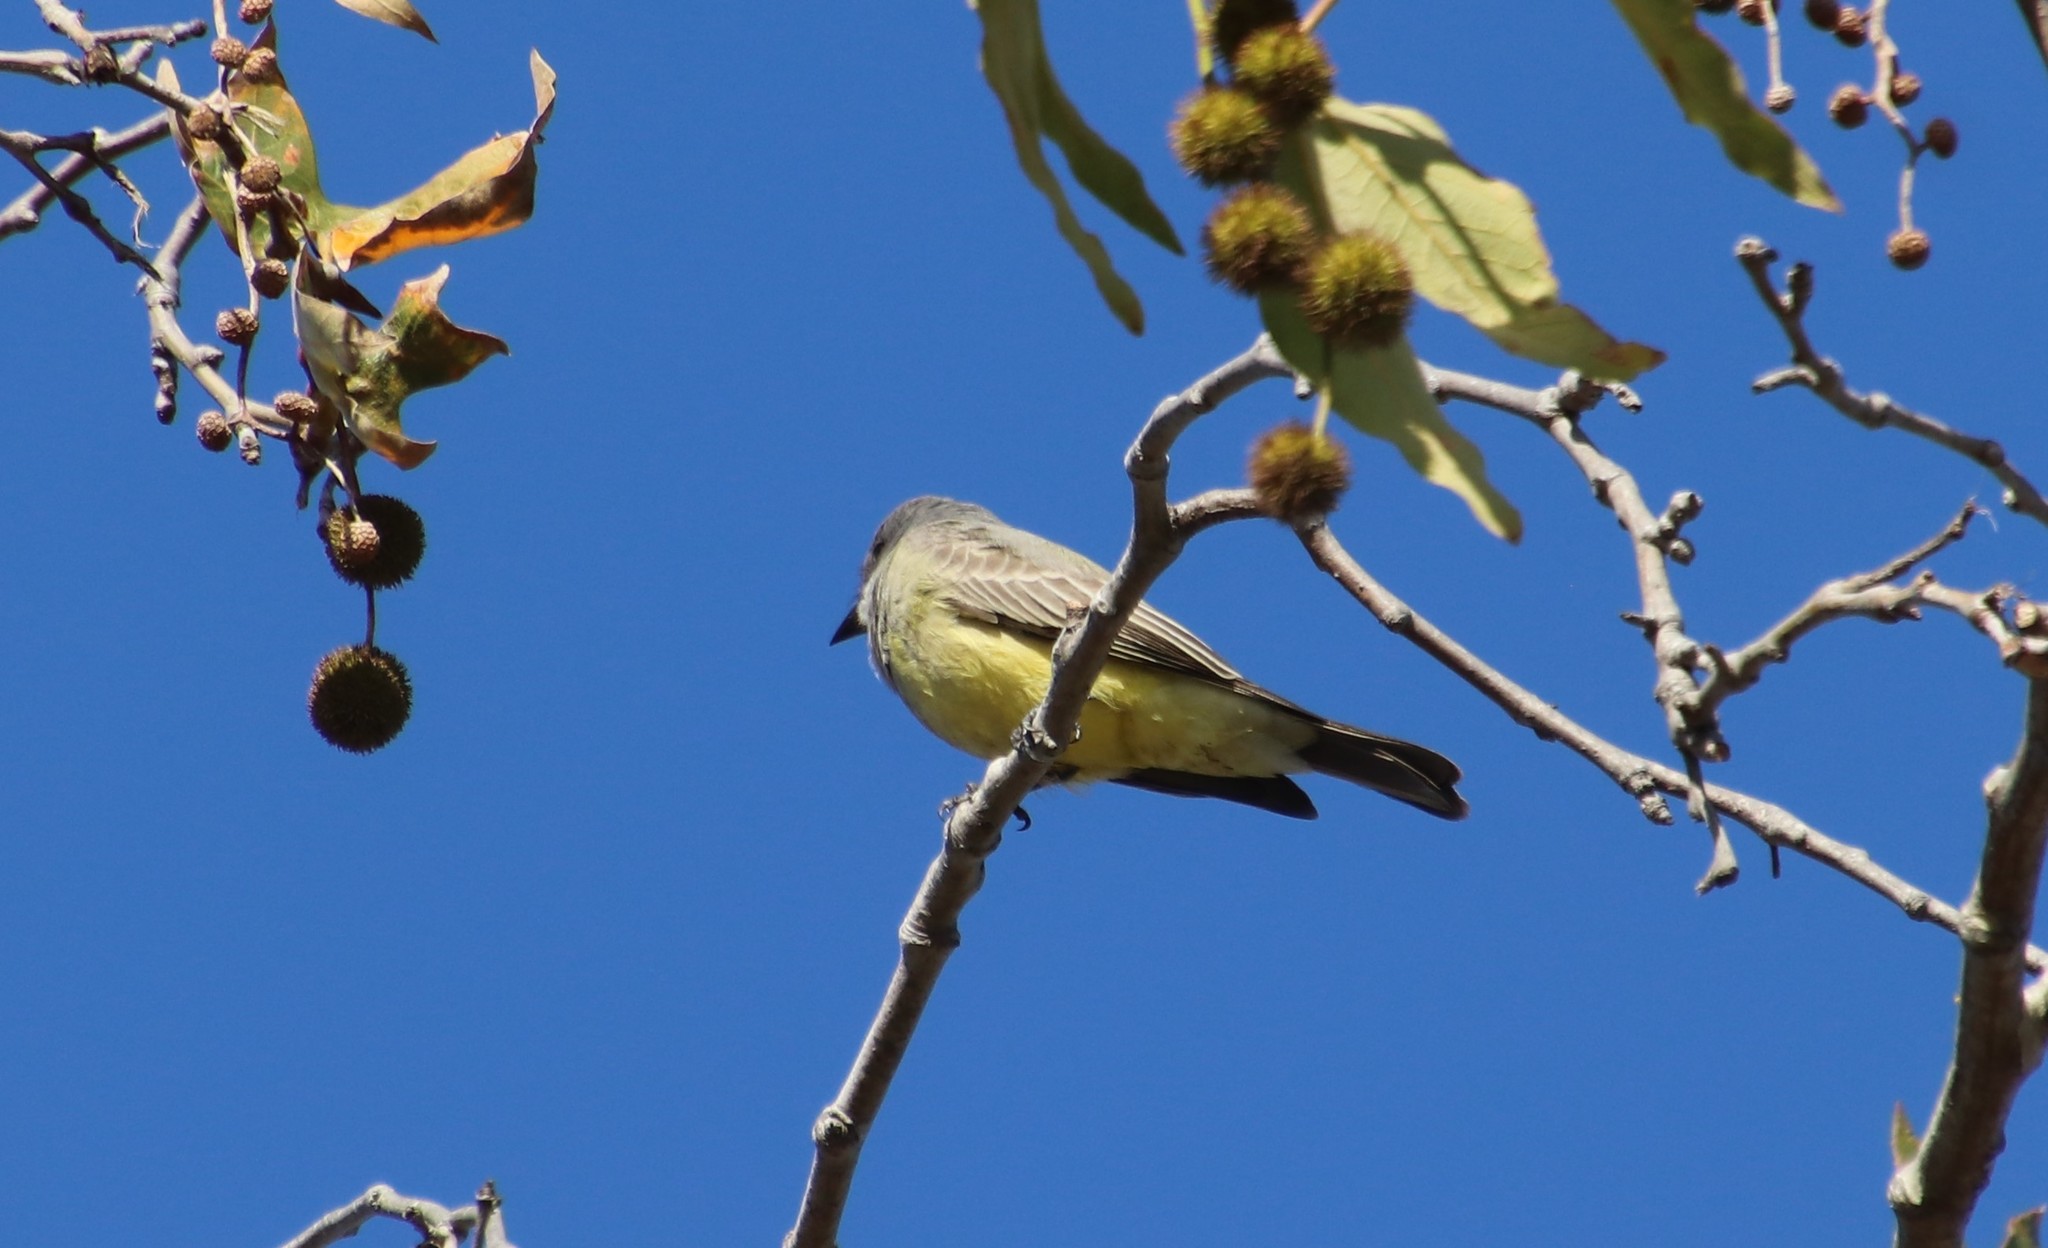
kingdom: Animalia
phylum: Chordata
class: Aves
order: Passeriformes
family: Tyrannidae
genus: Tyrannus
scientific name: Tyrannus vociferans
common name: Cassin's kingbird
